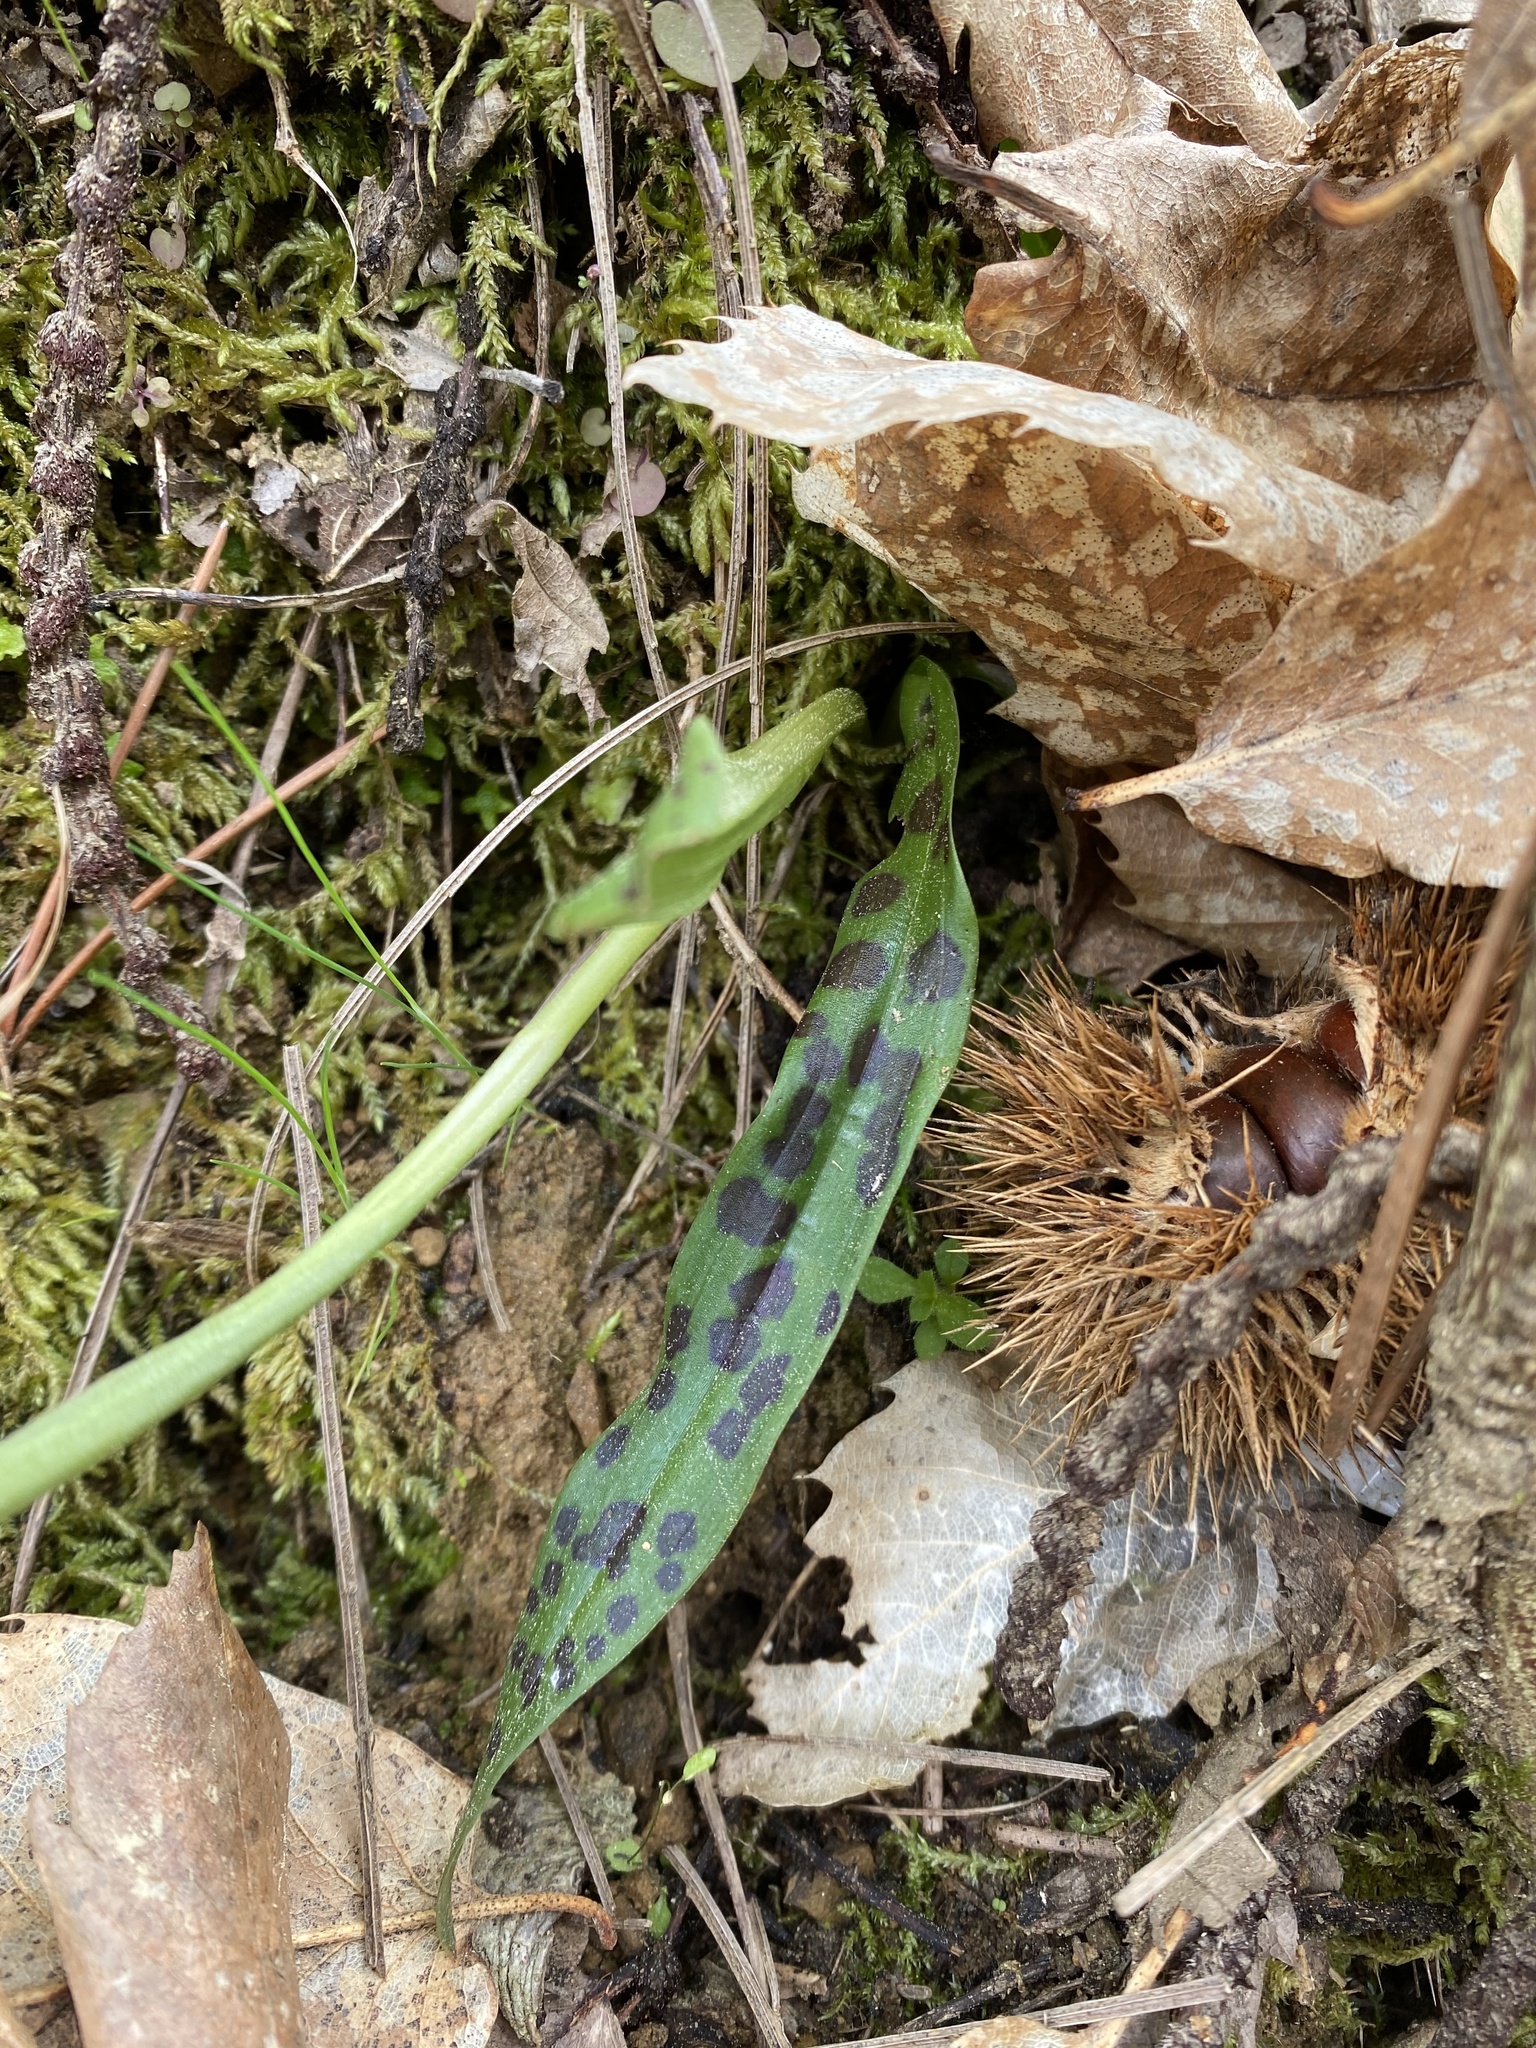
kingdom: Plantae
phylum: Tracheophyta
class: Liliopsida
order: Asparagales
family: Orchidaceae
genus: Orchis
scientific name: Orchis provincialis
